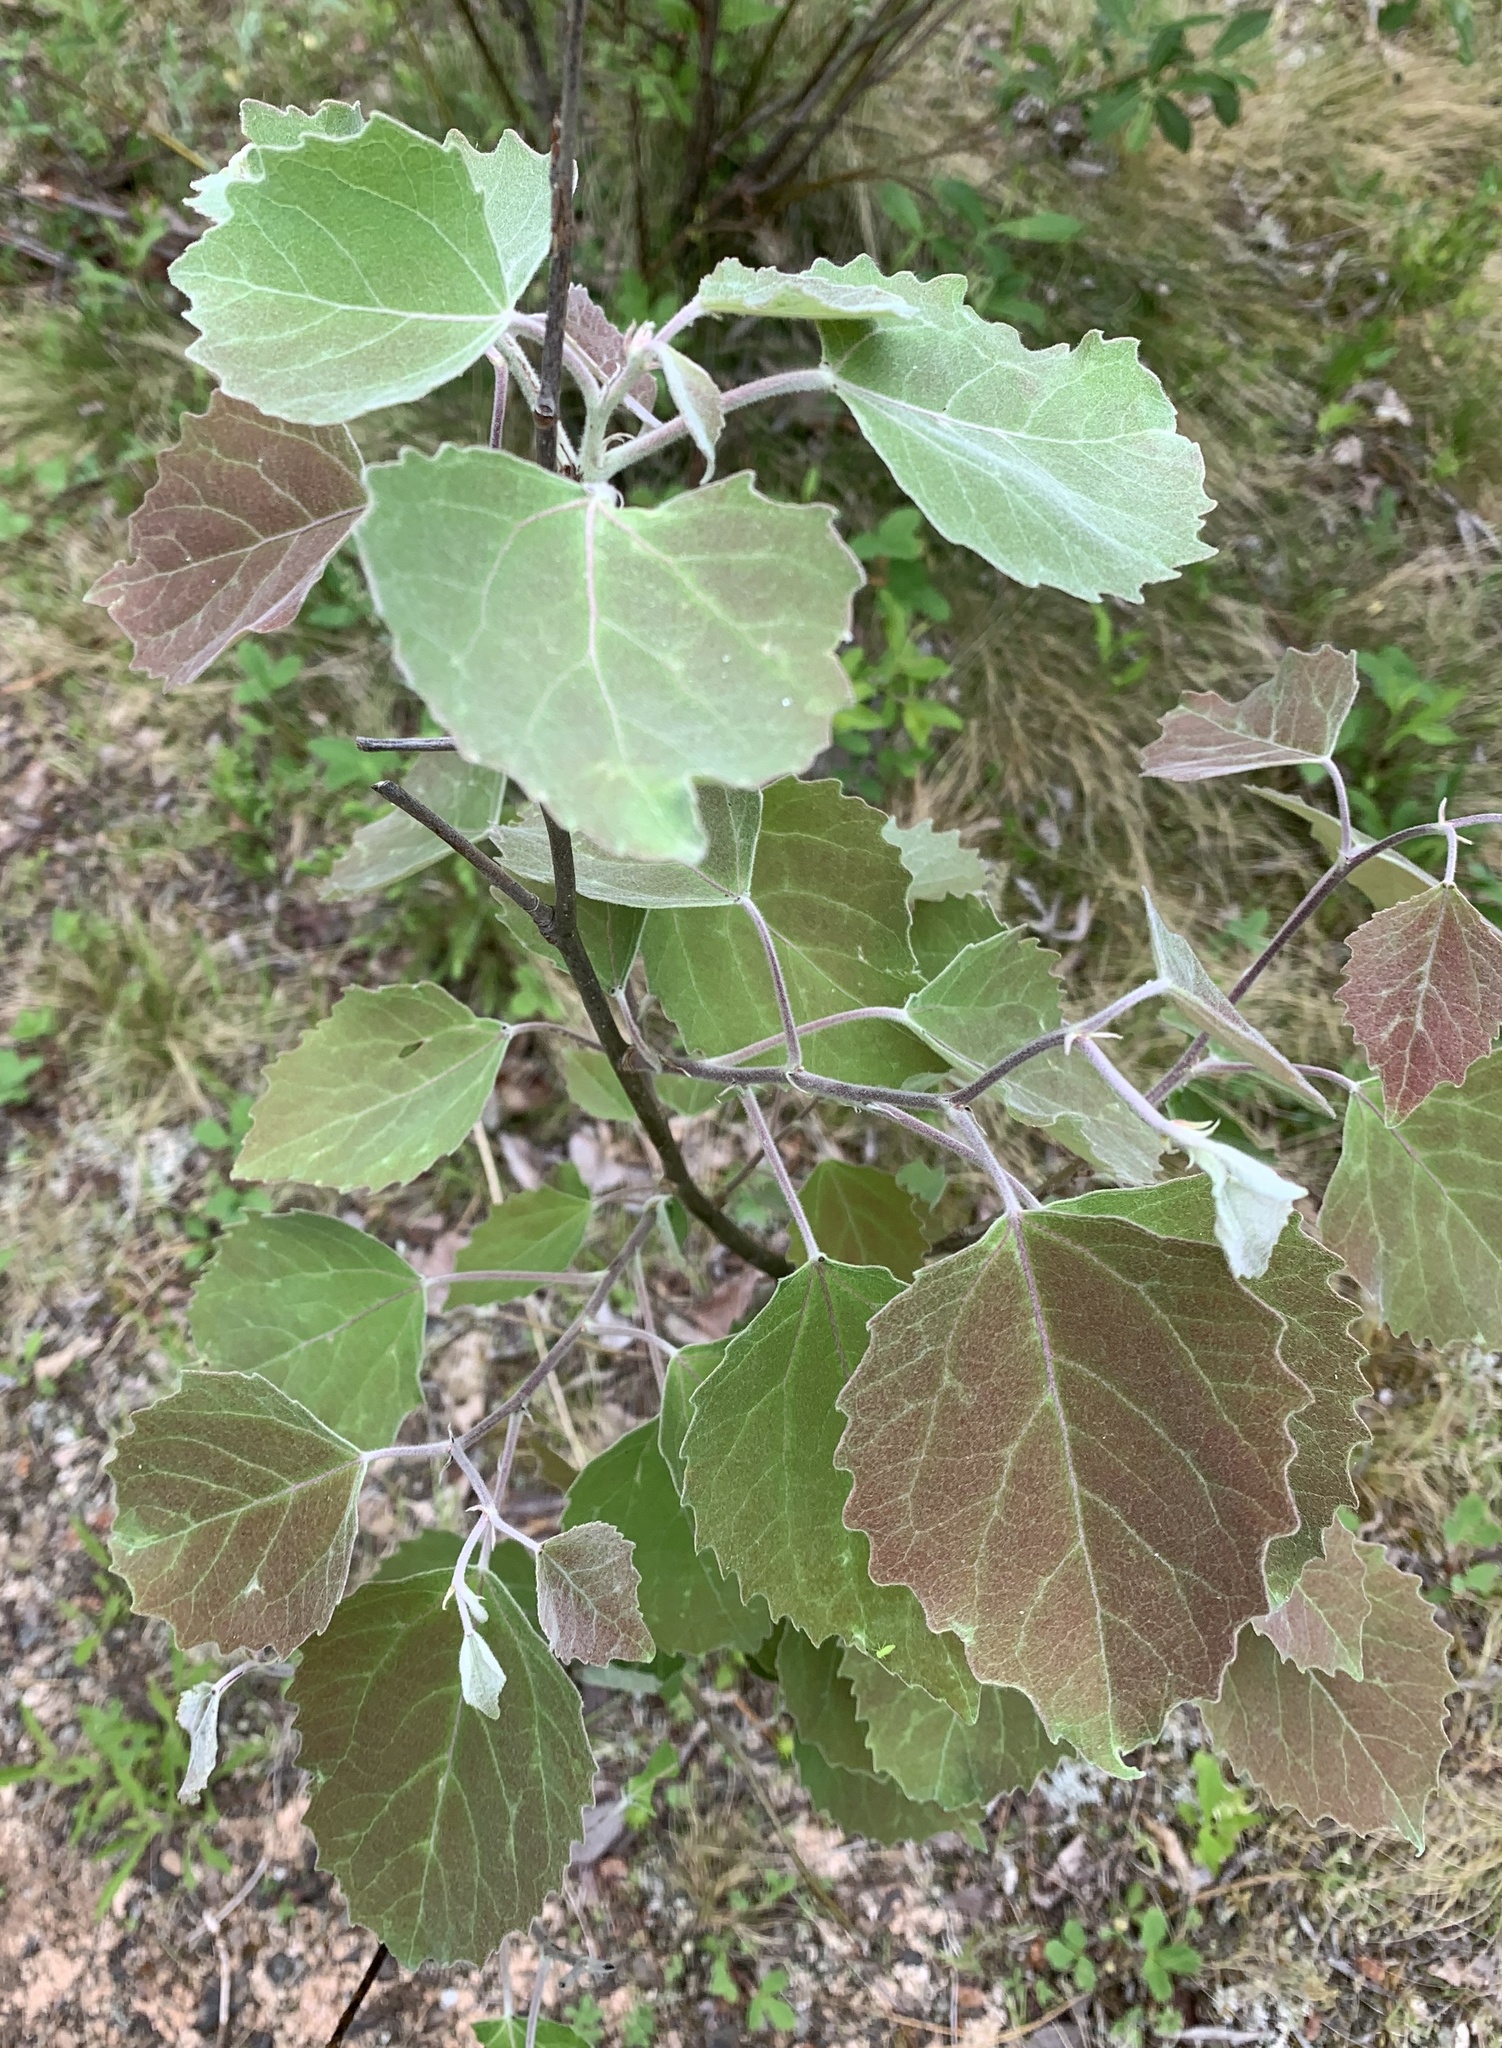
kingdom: Plantae
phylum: Tracheophyta
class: Magnoliopsida
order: Malpighiales
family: Salicaceae
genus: Populus
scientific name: Populus grandidentata
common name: Bigtooth aspen
